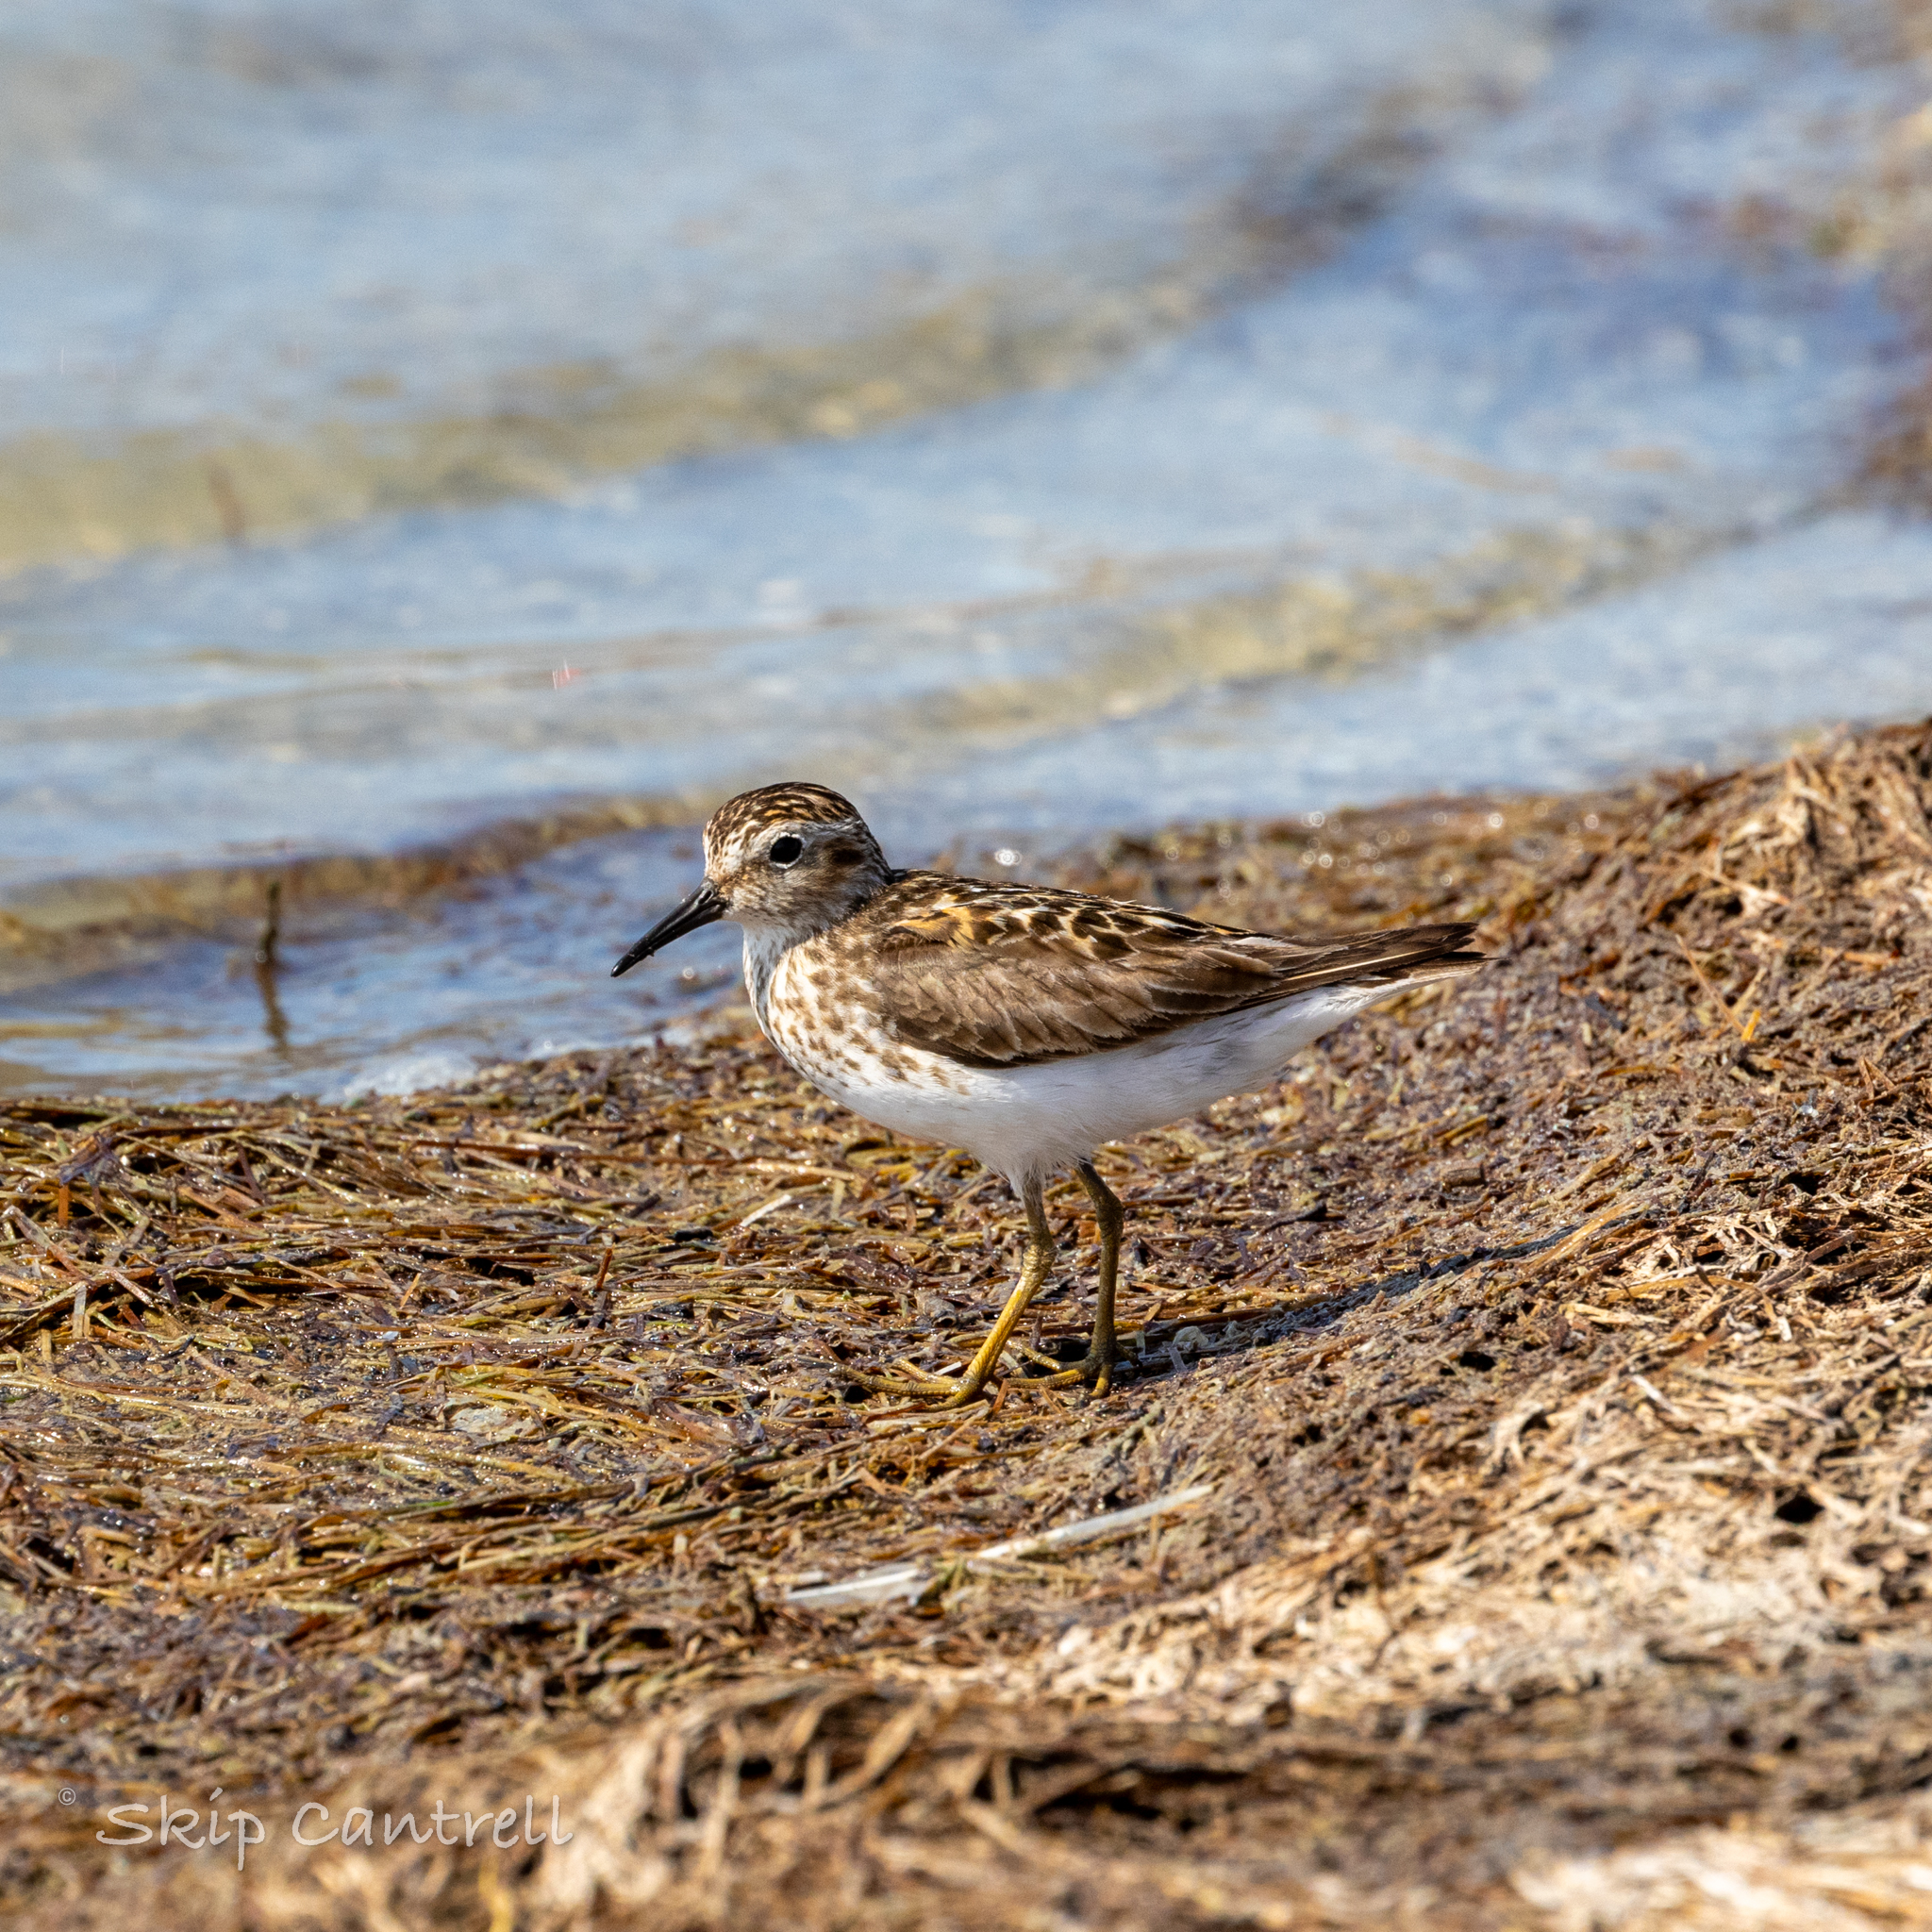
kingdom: Animalia
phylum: Chordata
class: Aves
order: Charadriiformes
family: Scolopacidae
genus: Calidris
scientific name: Calidris minutilla
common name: Least sandpiper
